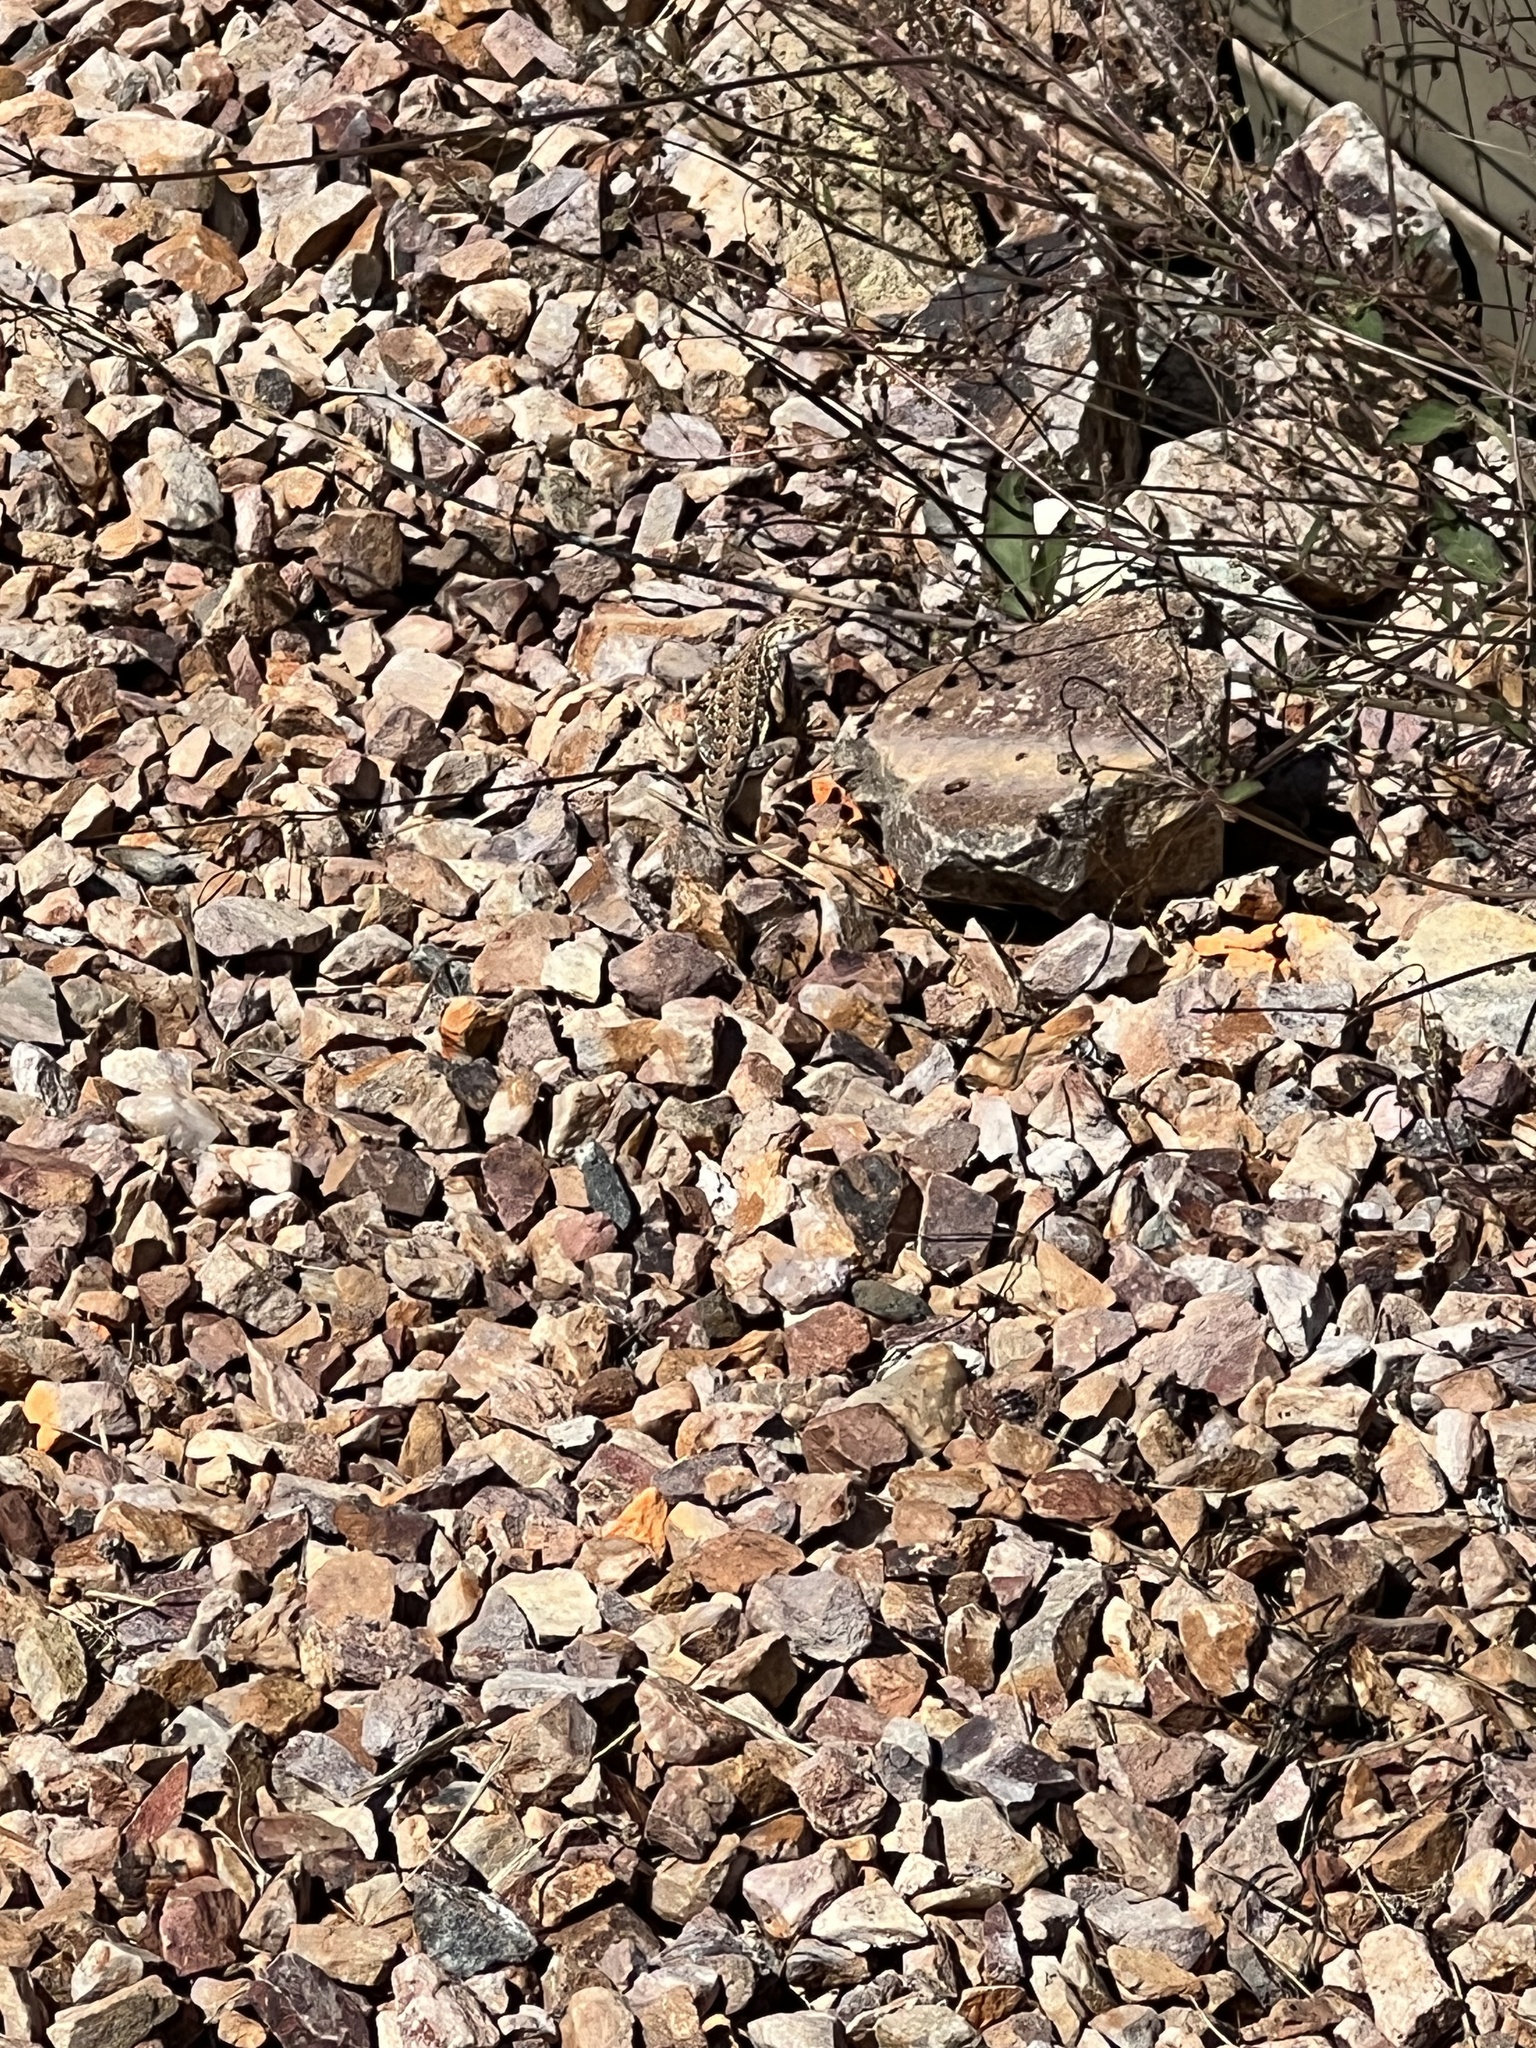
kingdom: Animalia
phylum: Chordata
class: Squamata
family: Phrynosomatidae
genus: Holbrookia
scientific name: Holbrookia elegans
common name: Elegant earless lizard
